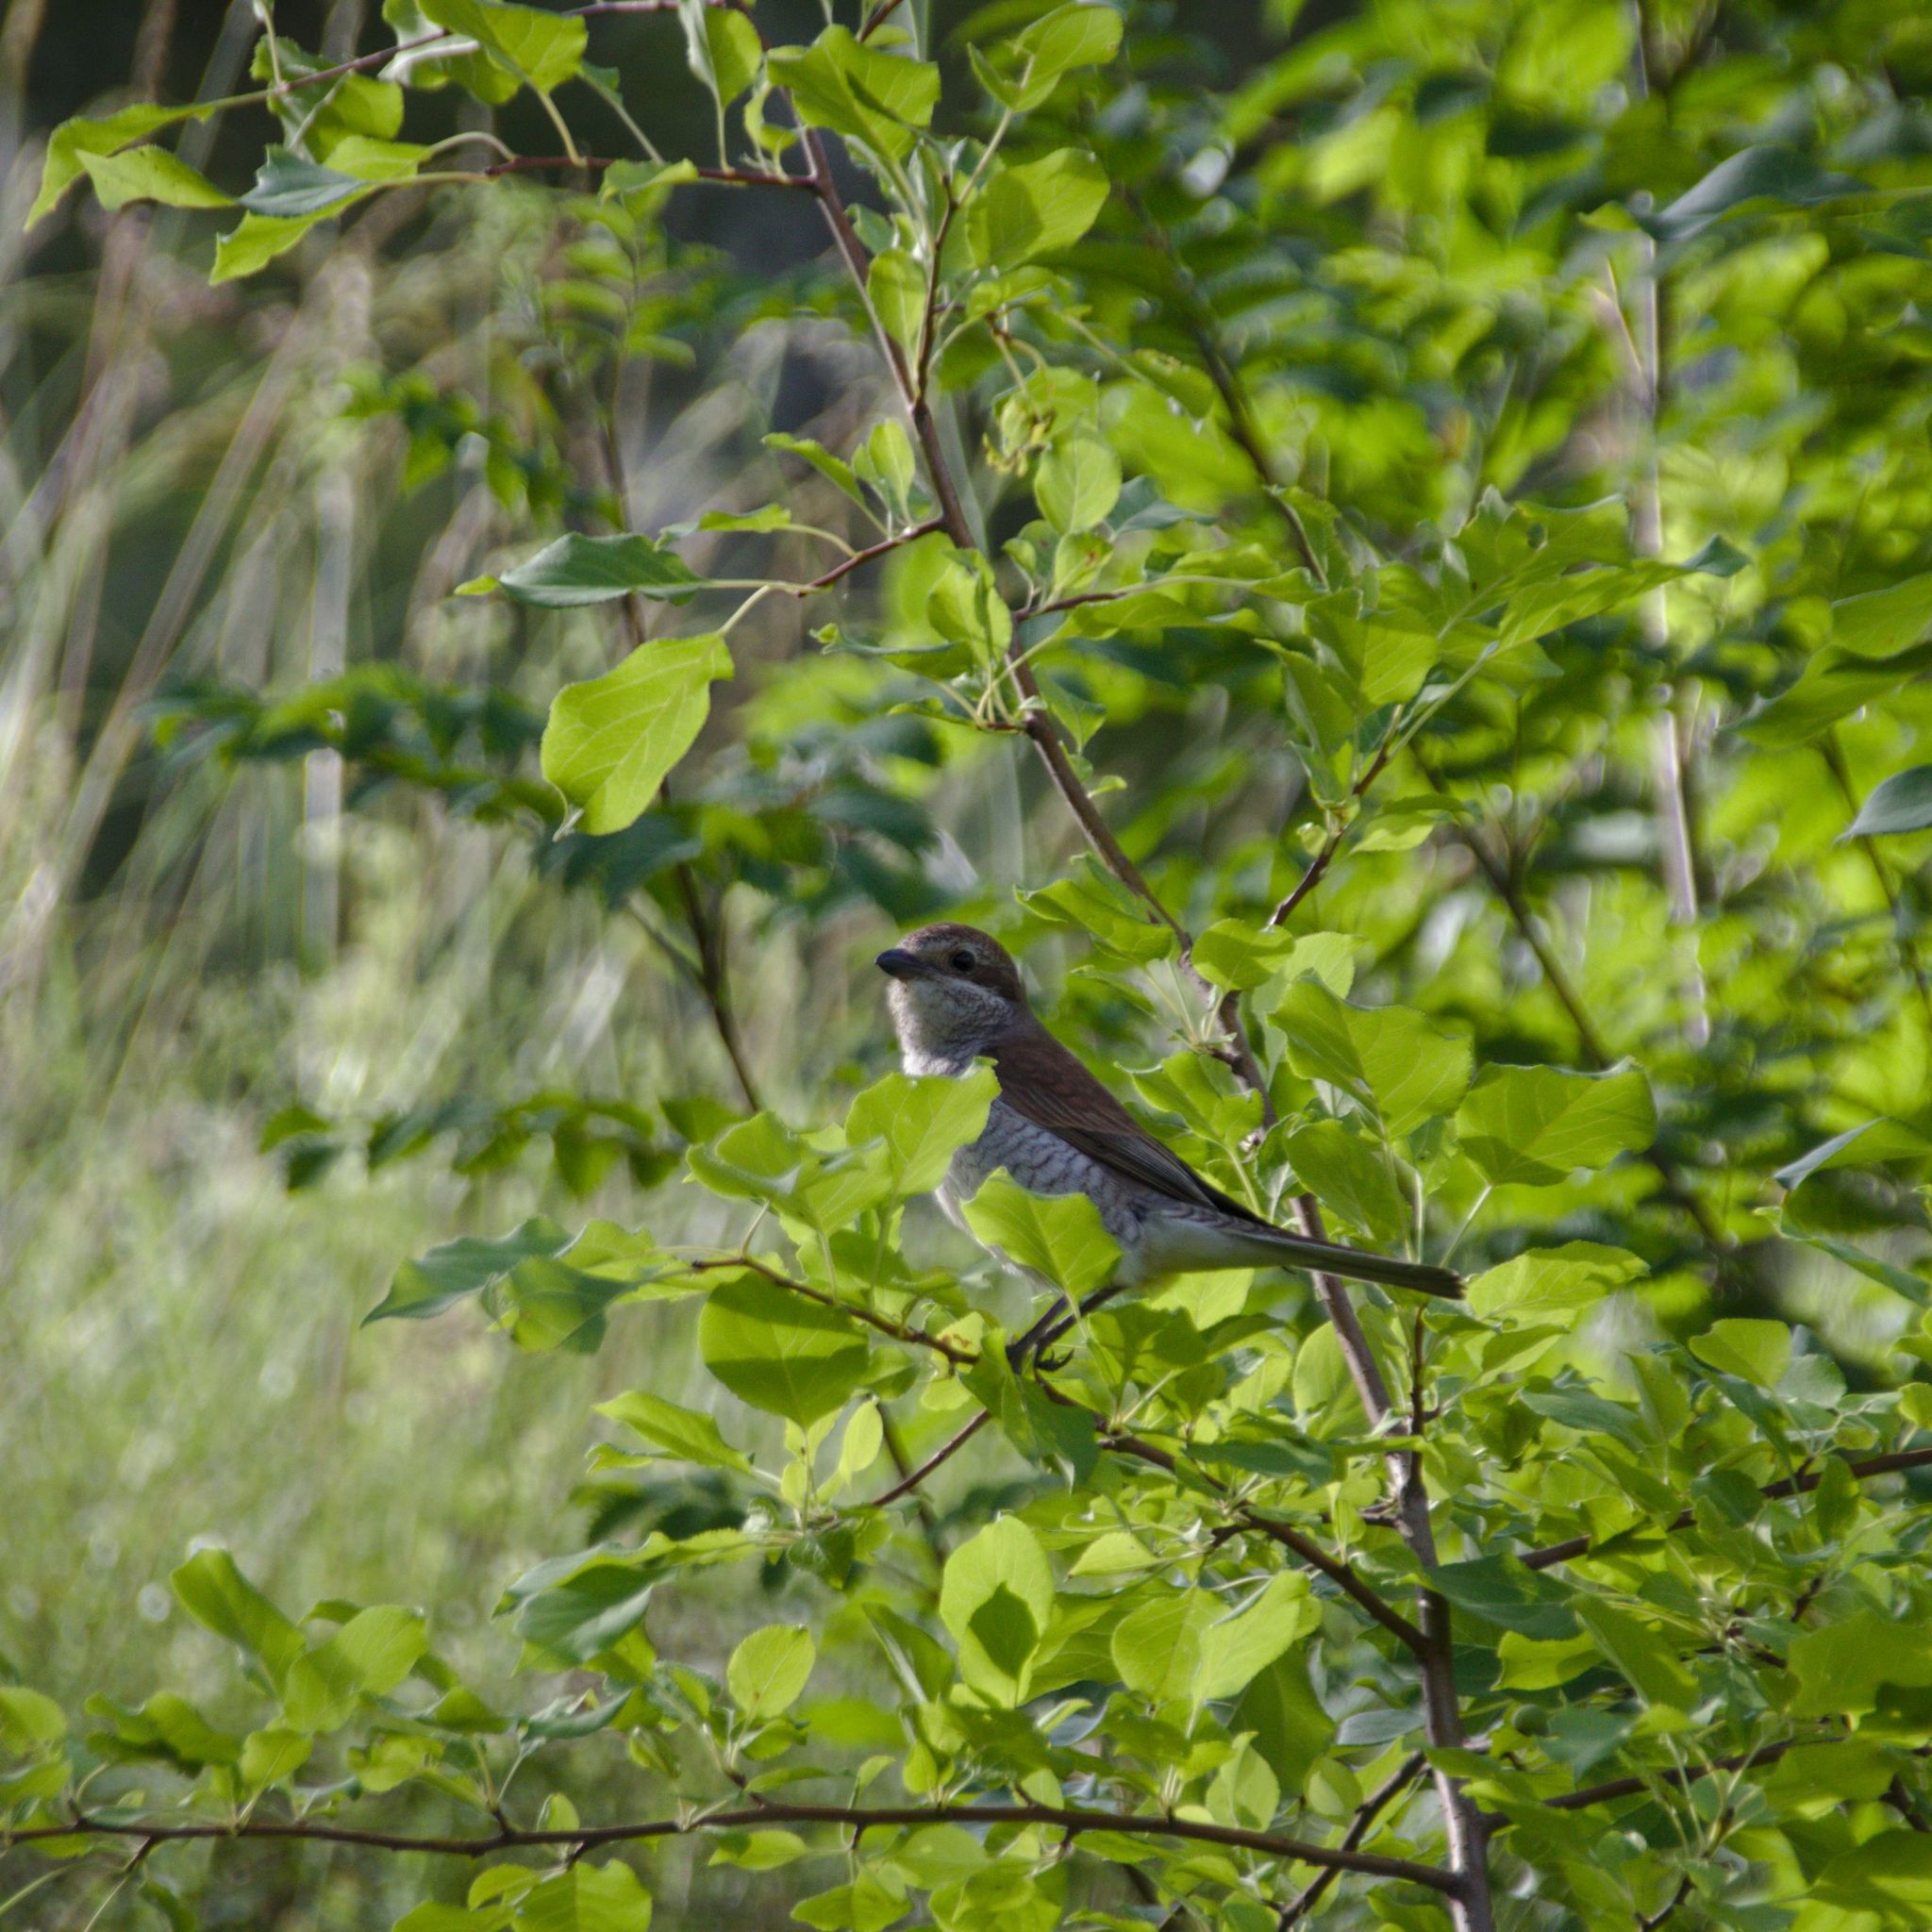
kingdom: Animalia
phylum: Chordata
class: Aves
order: Passeriformes
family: Laniidae
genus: Lanius
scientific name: Lanius collurio
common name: Red-backed shrike
